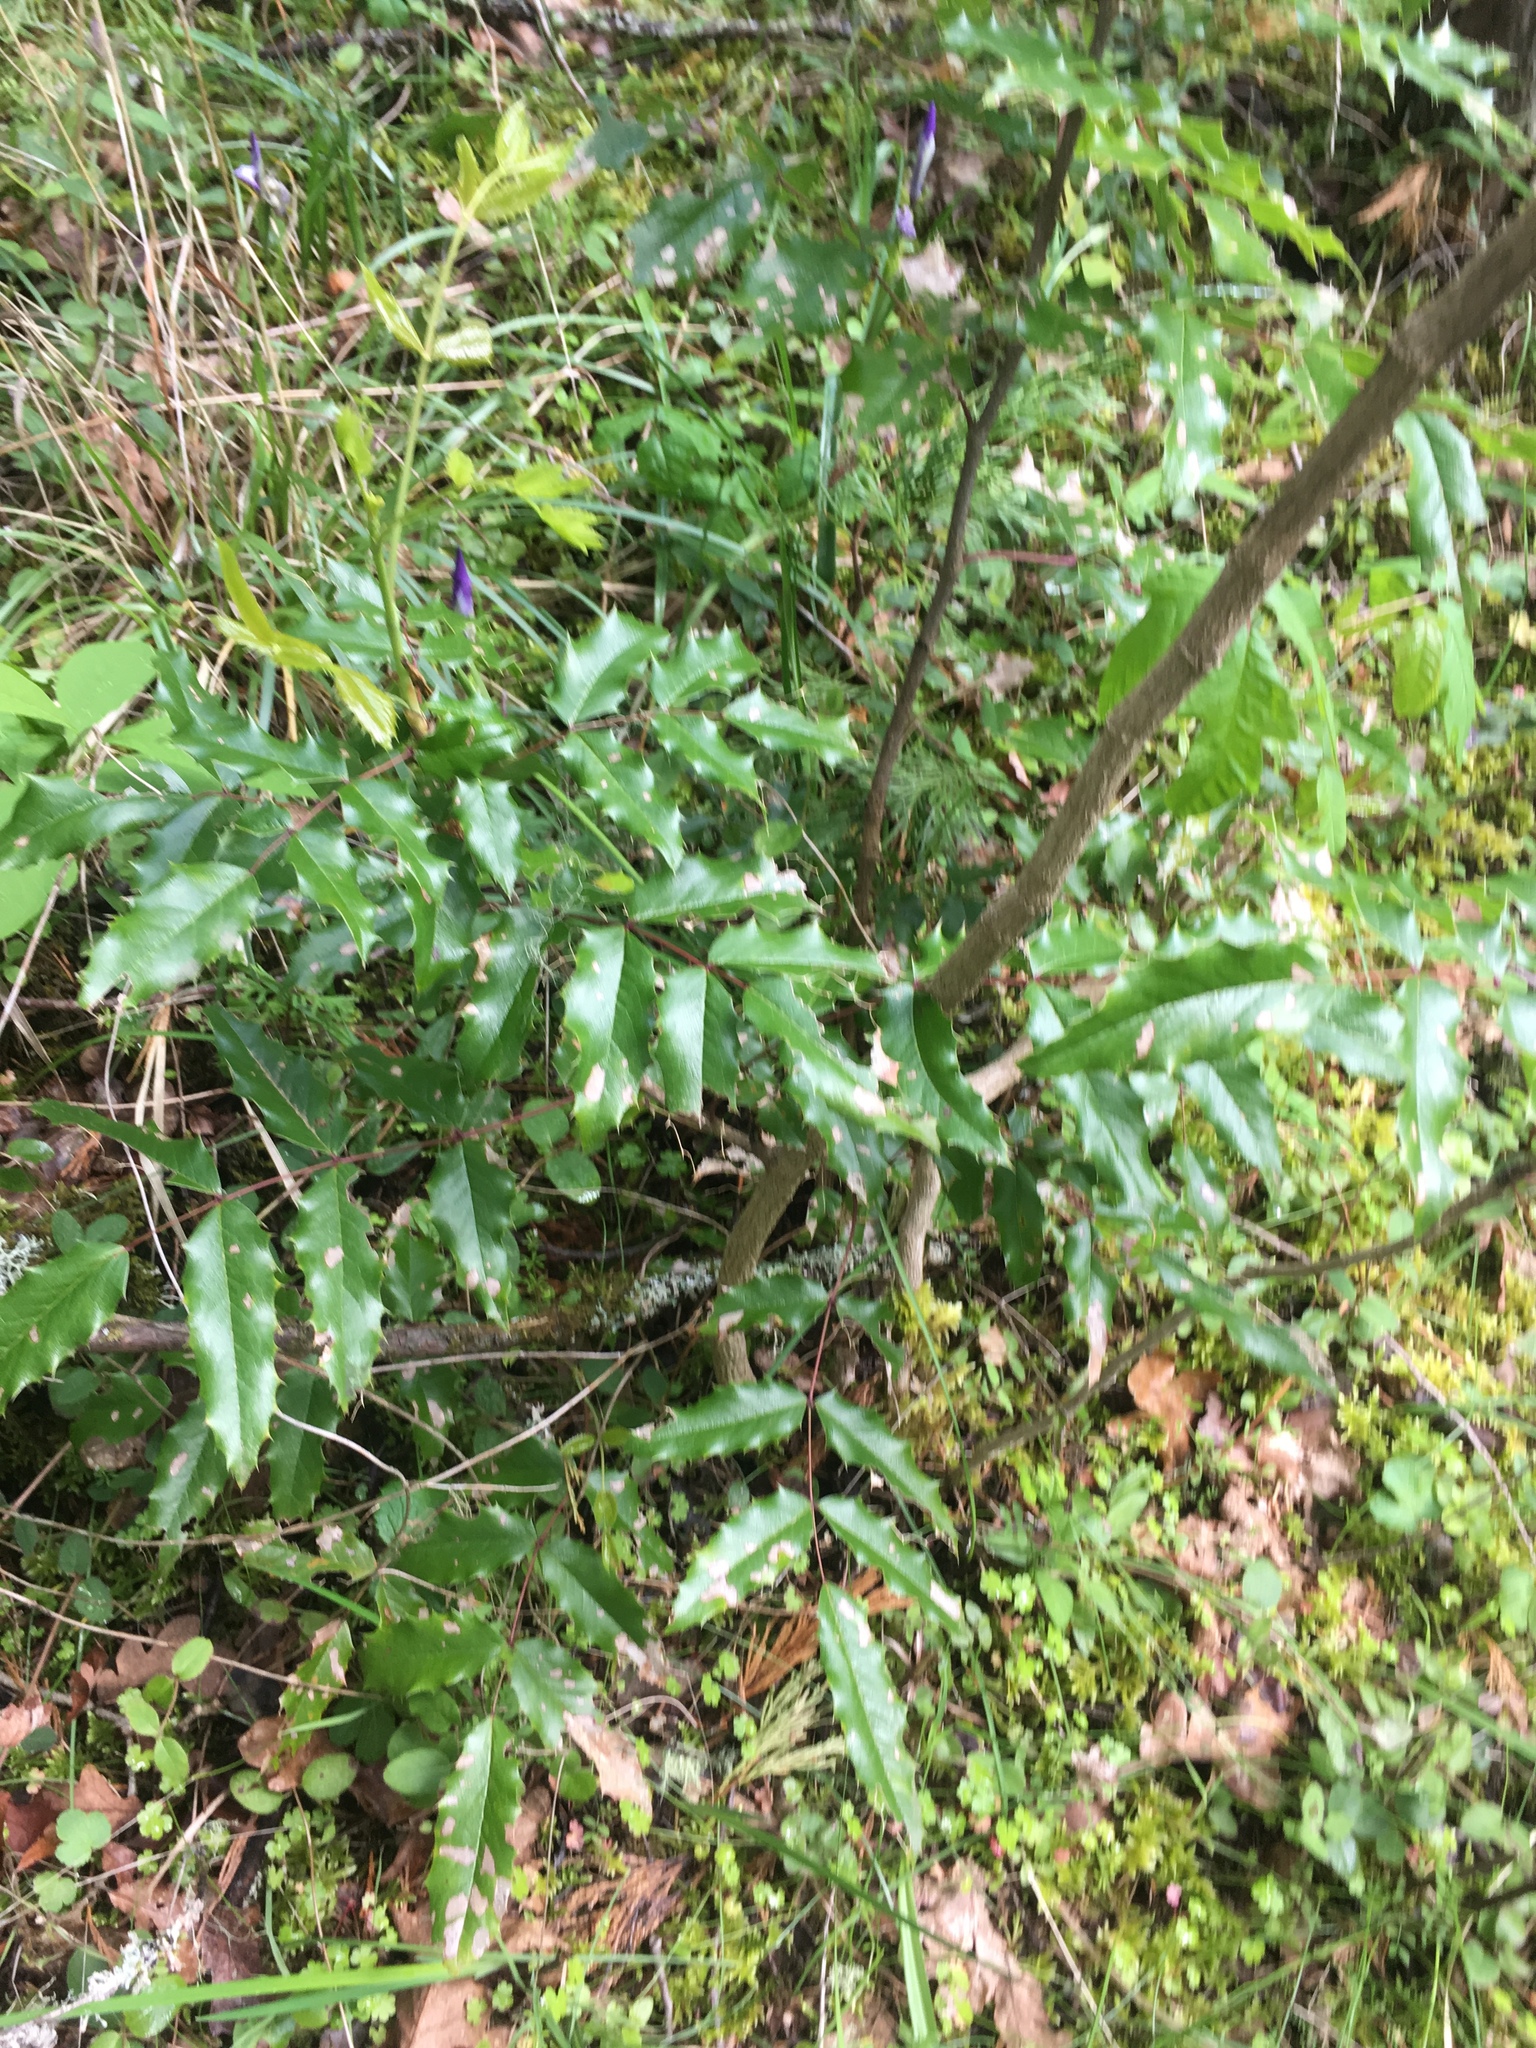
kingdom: Plantae
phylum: Tracheophyta
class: Magnoliopsida
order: Ranunculales
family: Berberidaceae
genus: Mahonia
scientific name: Mahonia aquifolium
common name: Oregon-grape
